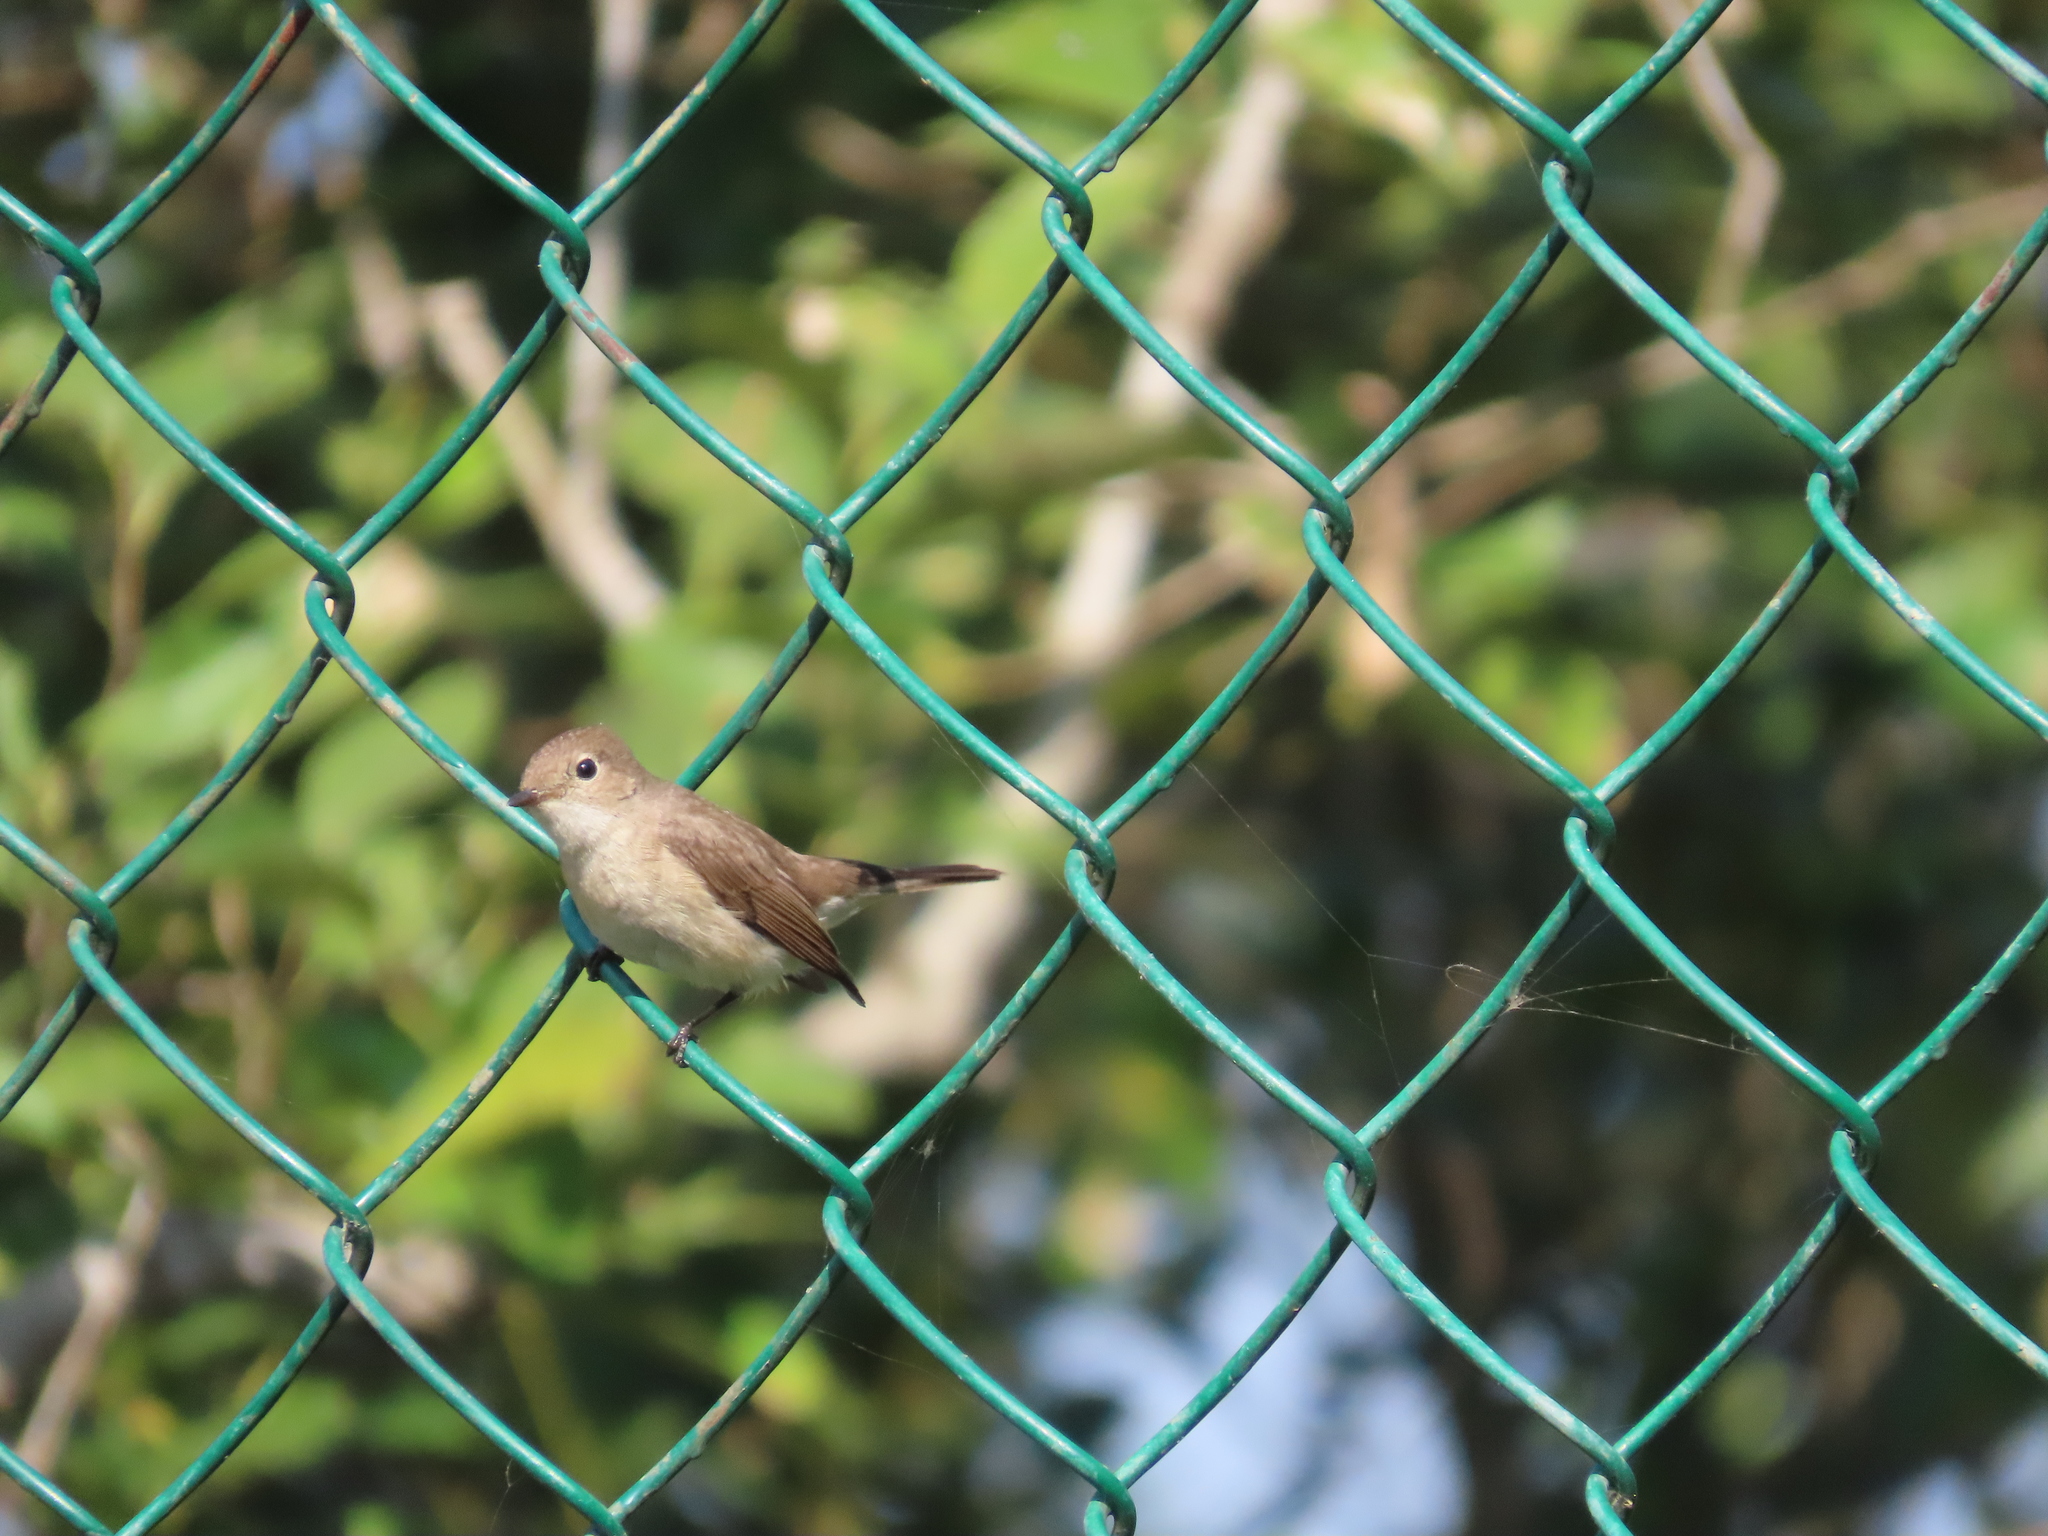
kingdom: Animalia
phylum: Chordata
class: Aves
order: Passeriformes
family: Muscicapidae
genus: Ficedula
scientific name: Ficedula albicilla
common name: Taiga flycatcher
